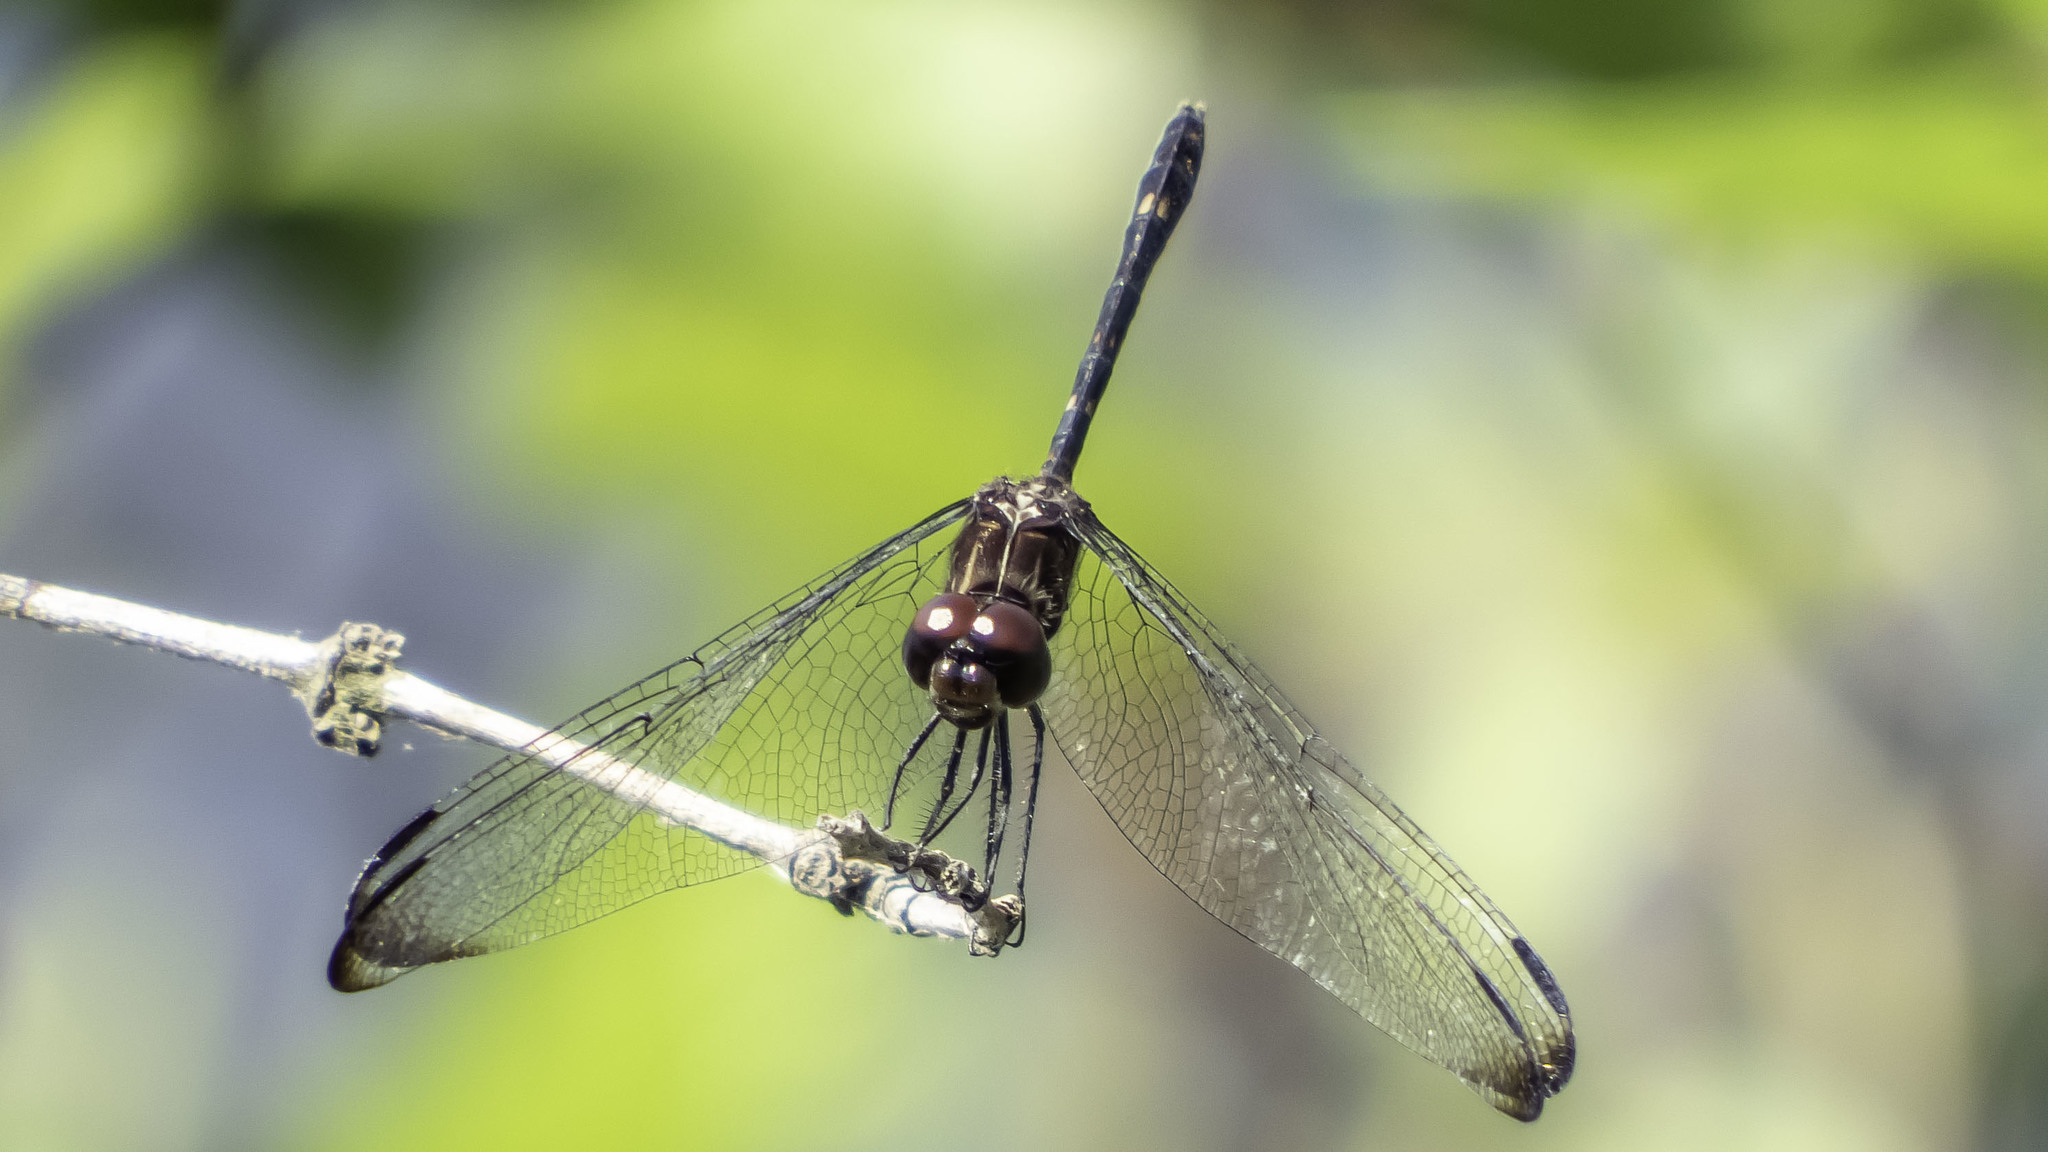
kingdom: Animalia
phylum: Arthropoda
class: Insecta
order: Odonata
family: Libellulidae
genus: Dythemis
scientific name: Dythemis velox
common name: Swift setwing
